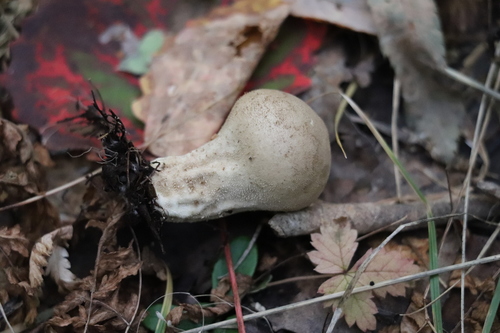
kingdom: Fungi
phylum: Basidiomycota
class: Agaricomycetes
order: Agaricales
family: Lycoperdaceae
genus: Lycoperdon
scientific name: Lycoperdon
